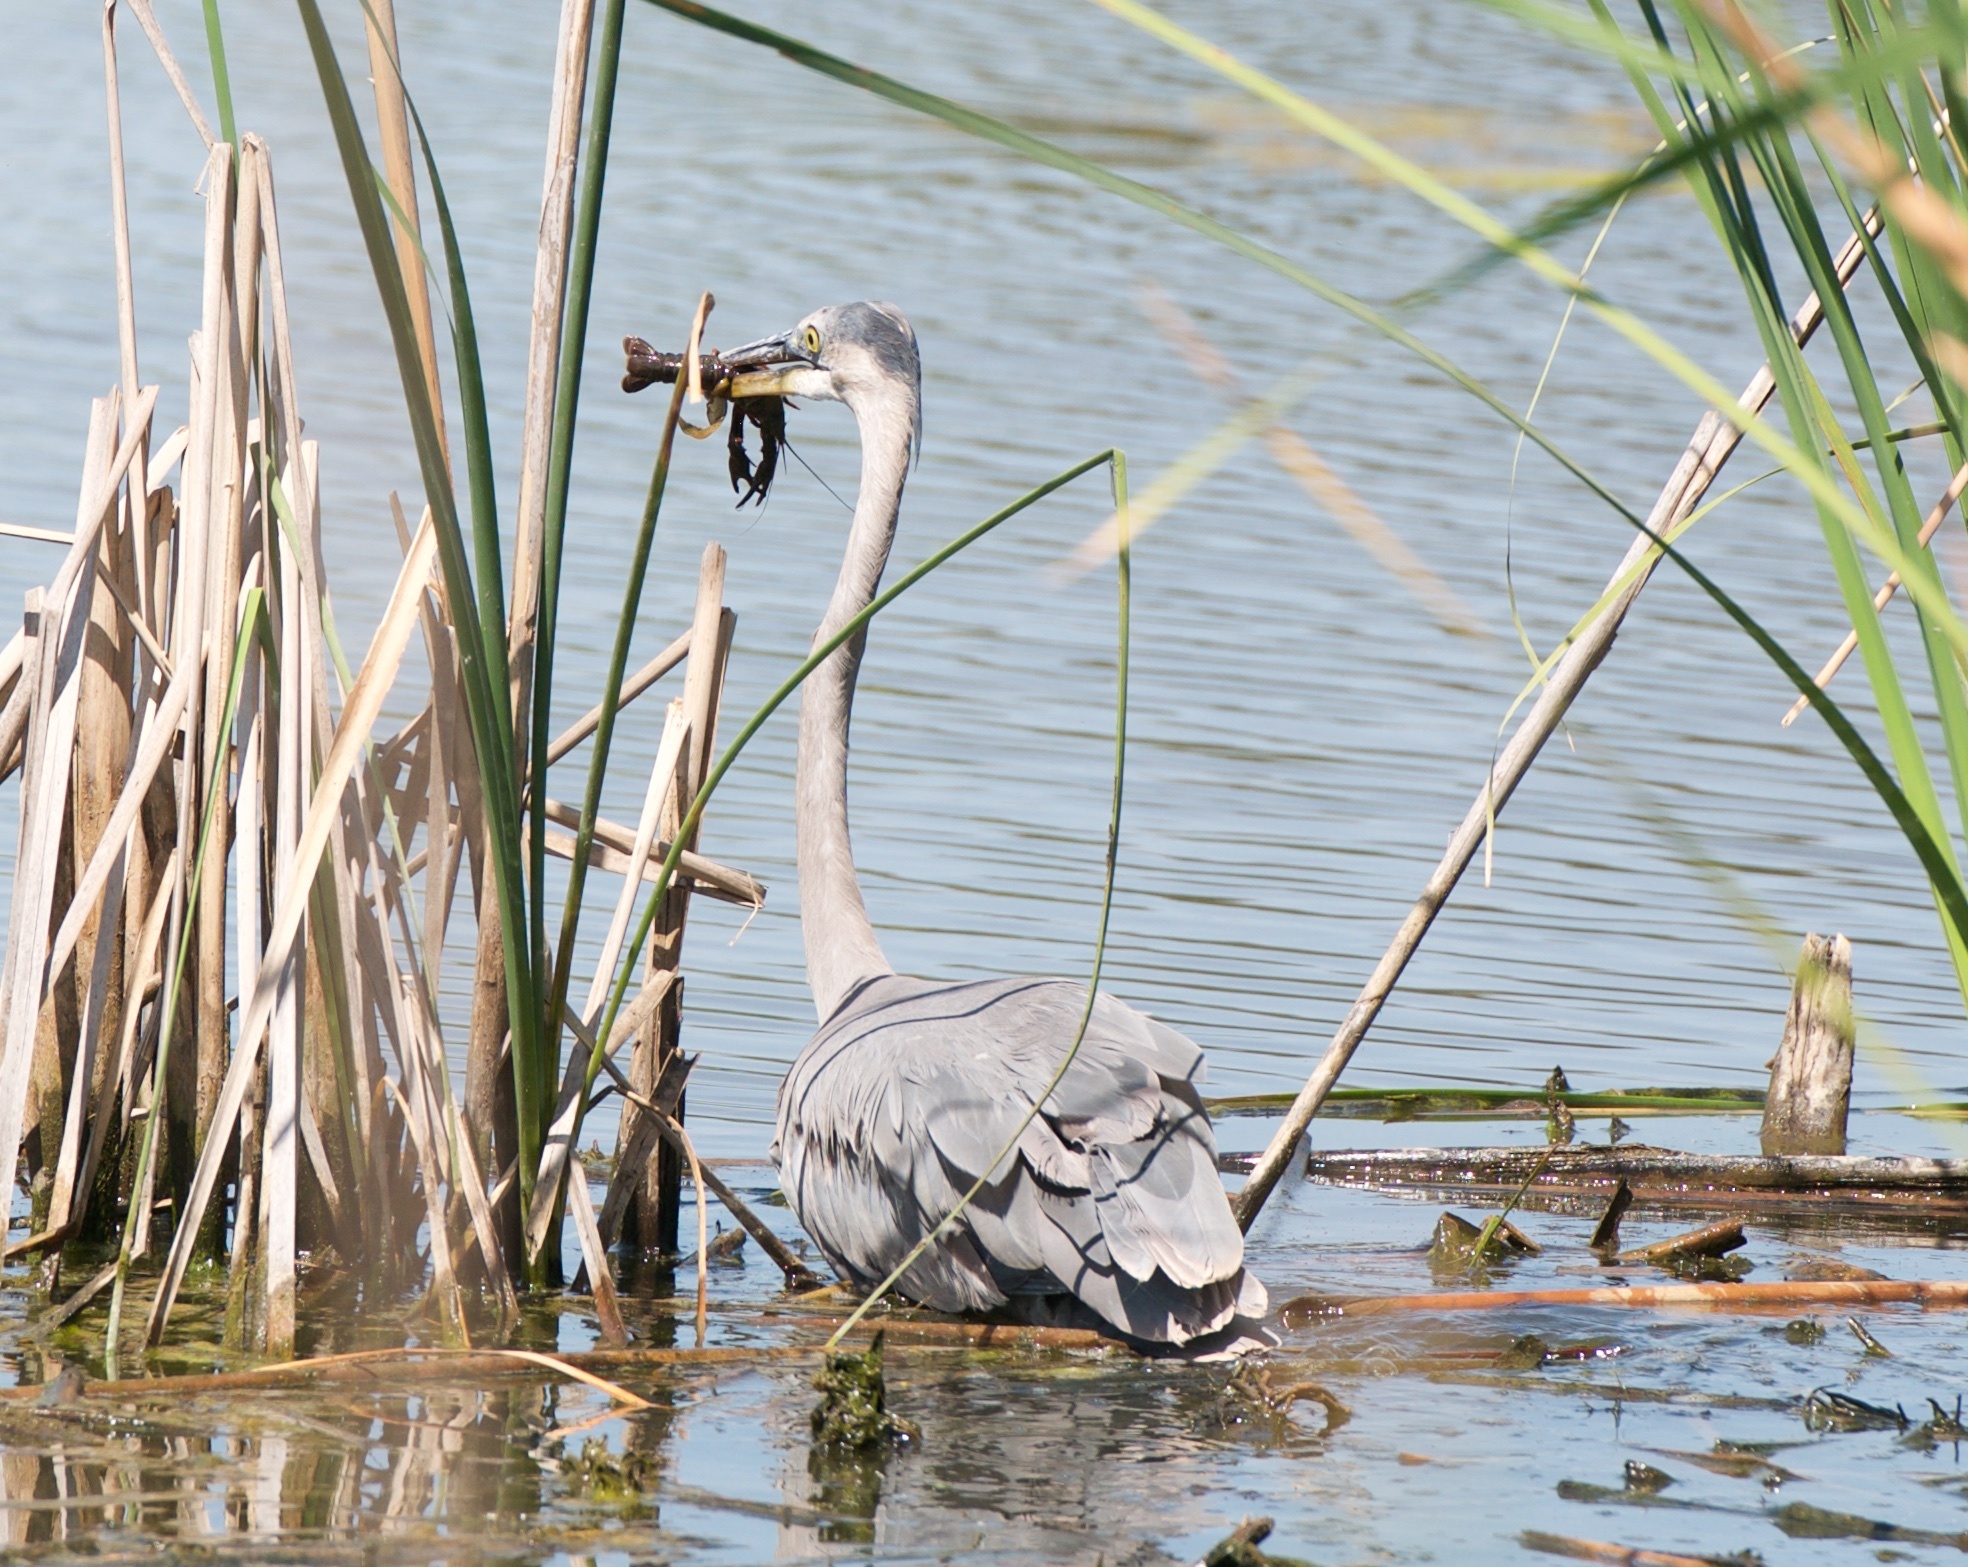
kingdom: Animalia
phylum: Chordata
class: Aves
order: Pelecaniformes
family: Ardeidae
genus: Ardea
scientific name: Ardea herodias
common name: Great blue heron
